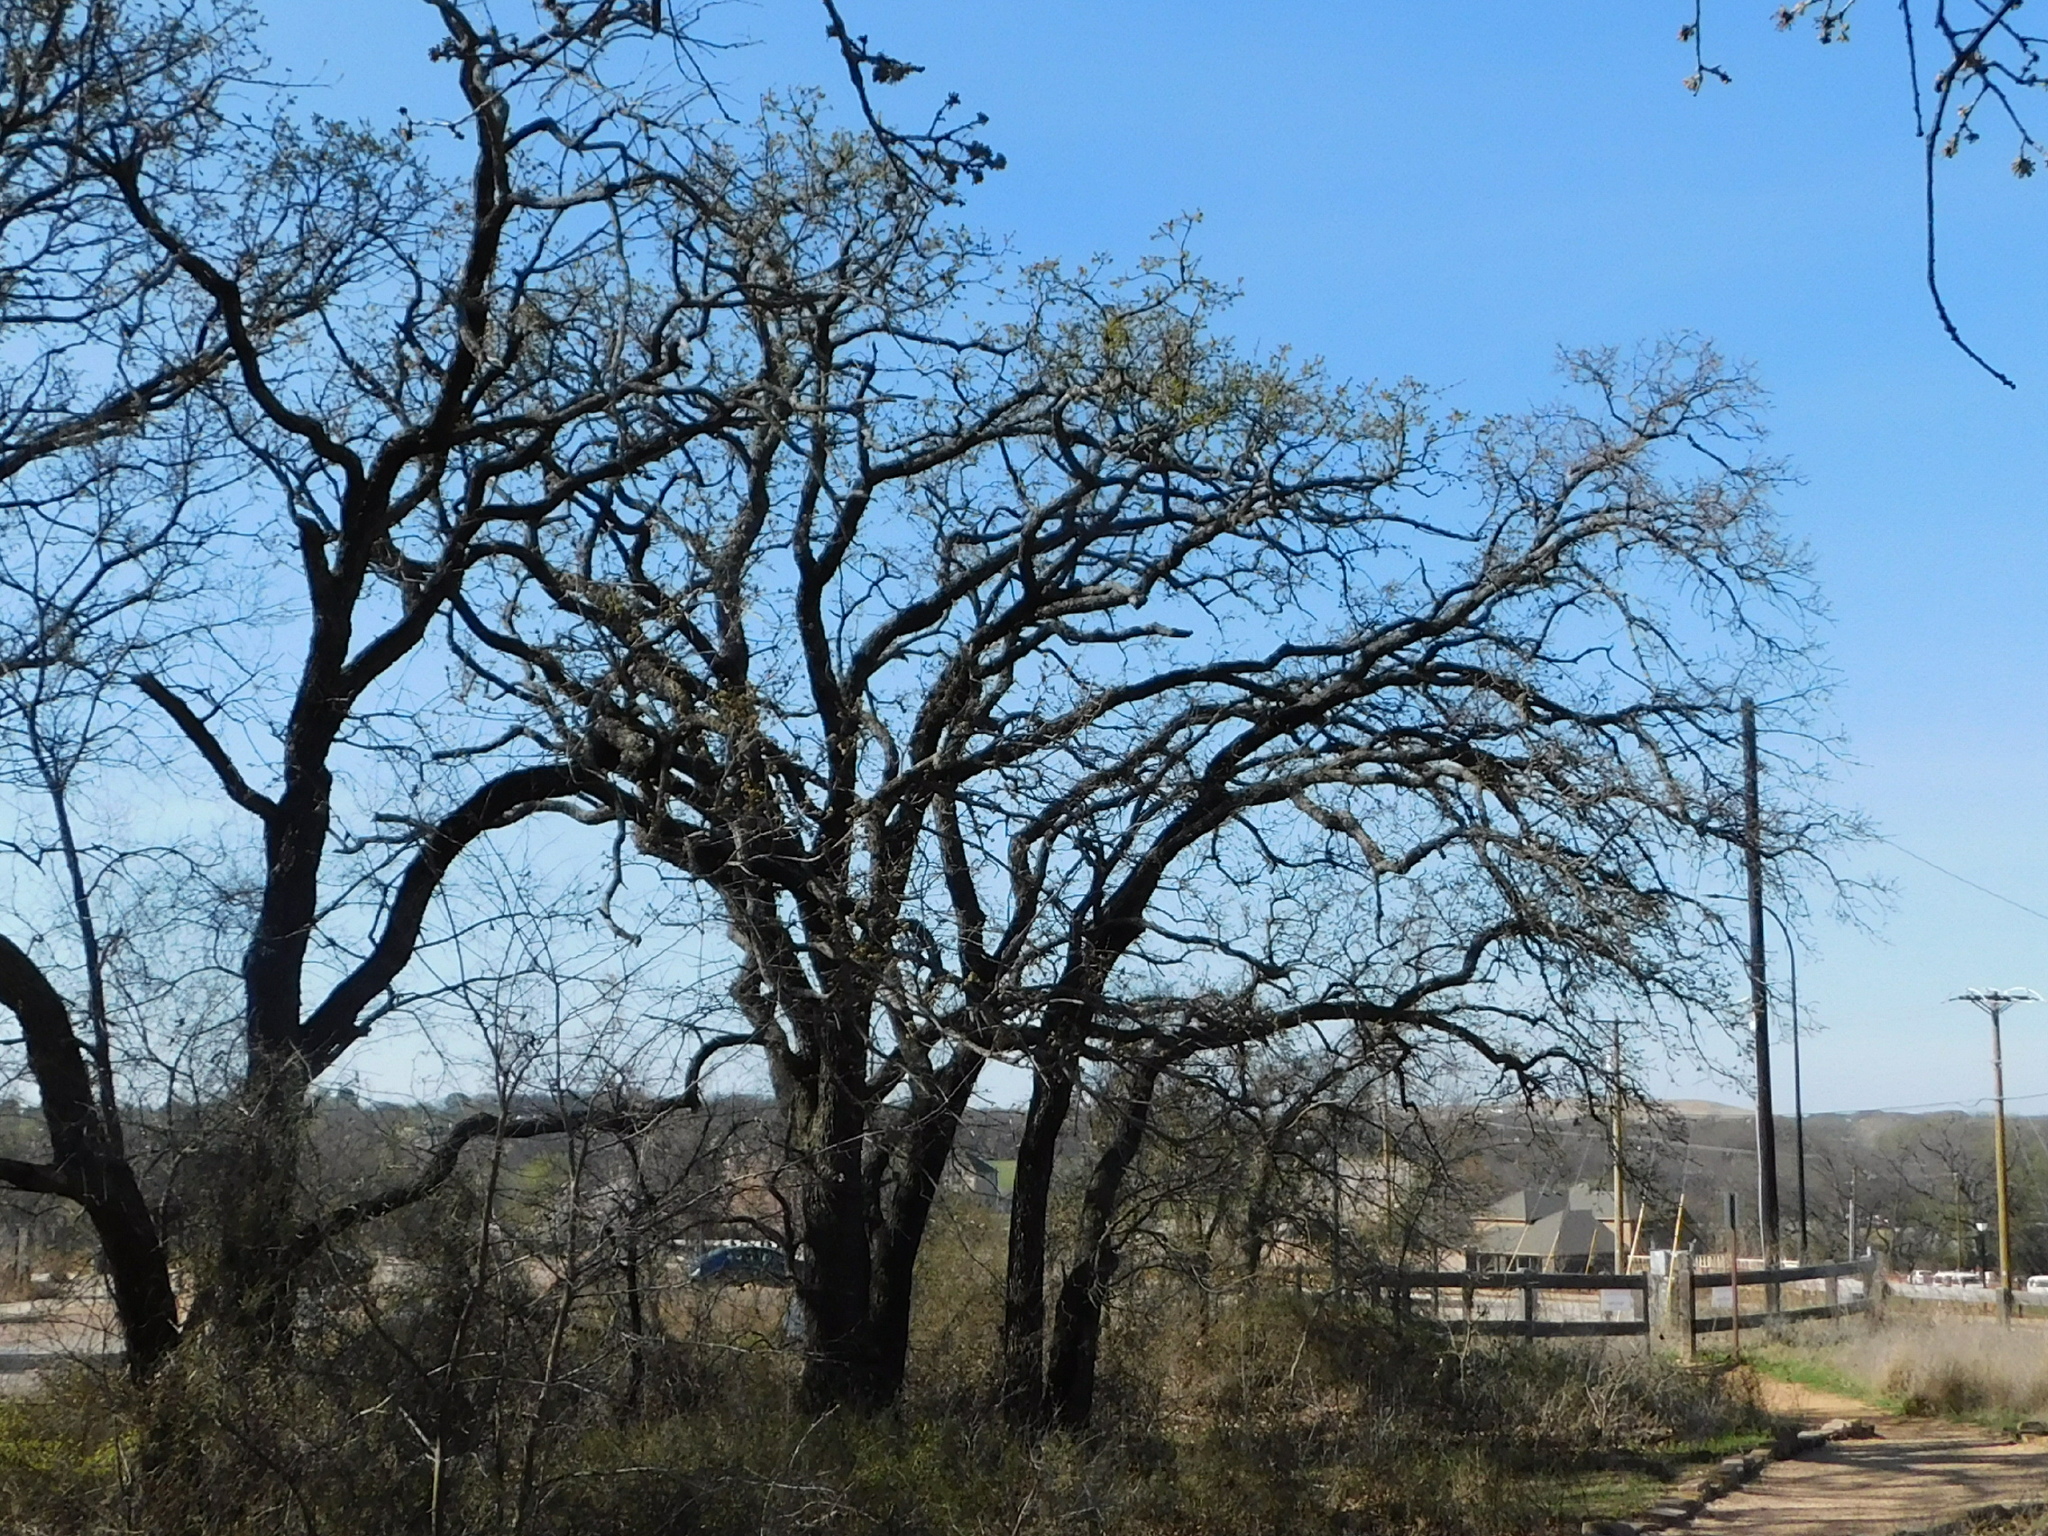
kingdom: Plantae
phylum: Tracheophyta
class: Magnoliopsida
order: Fagales
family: Fagaceae
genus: Quercus
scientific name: Quercus stellata
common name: Post oak
